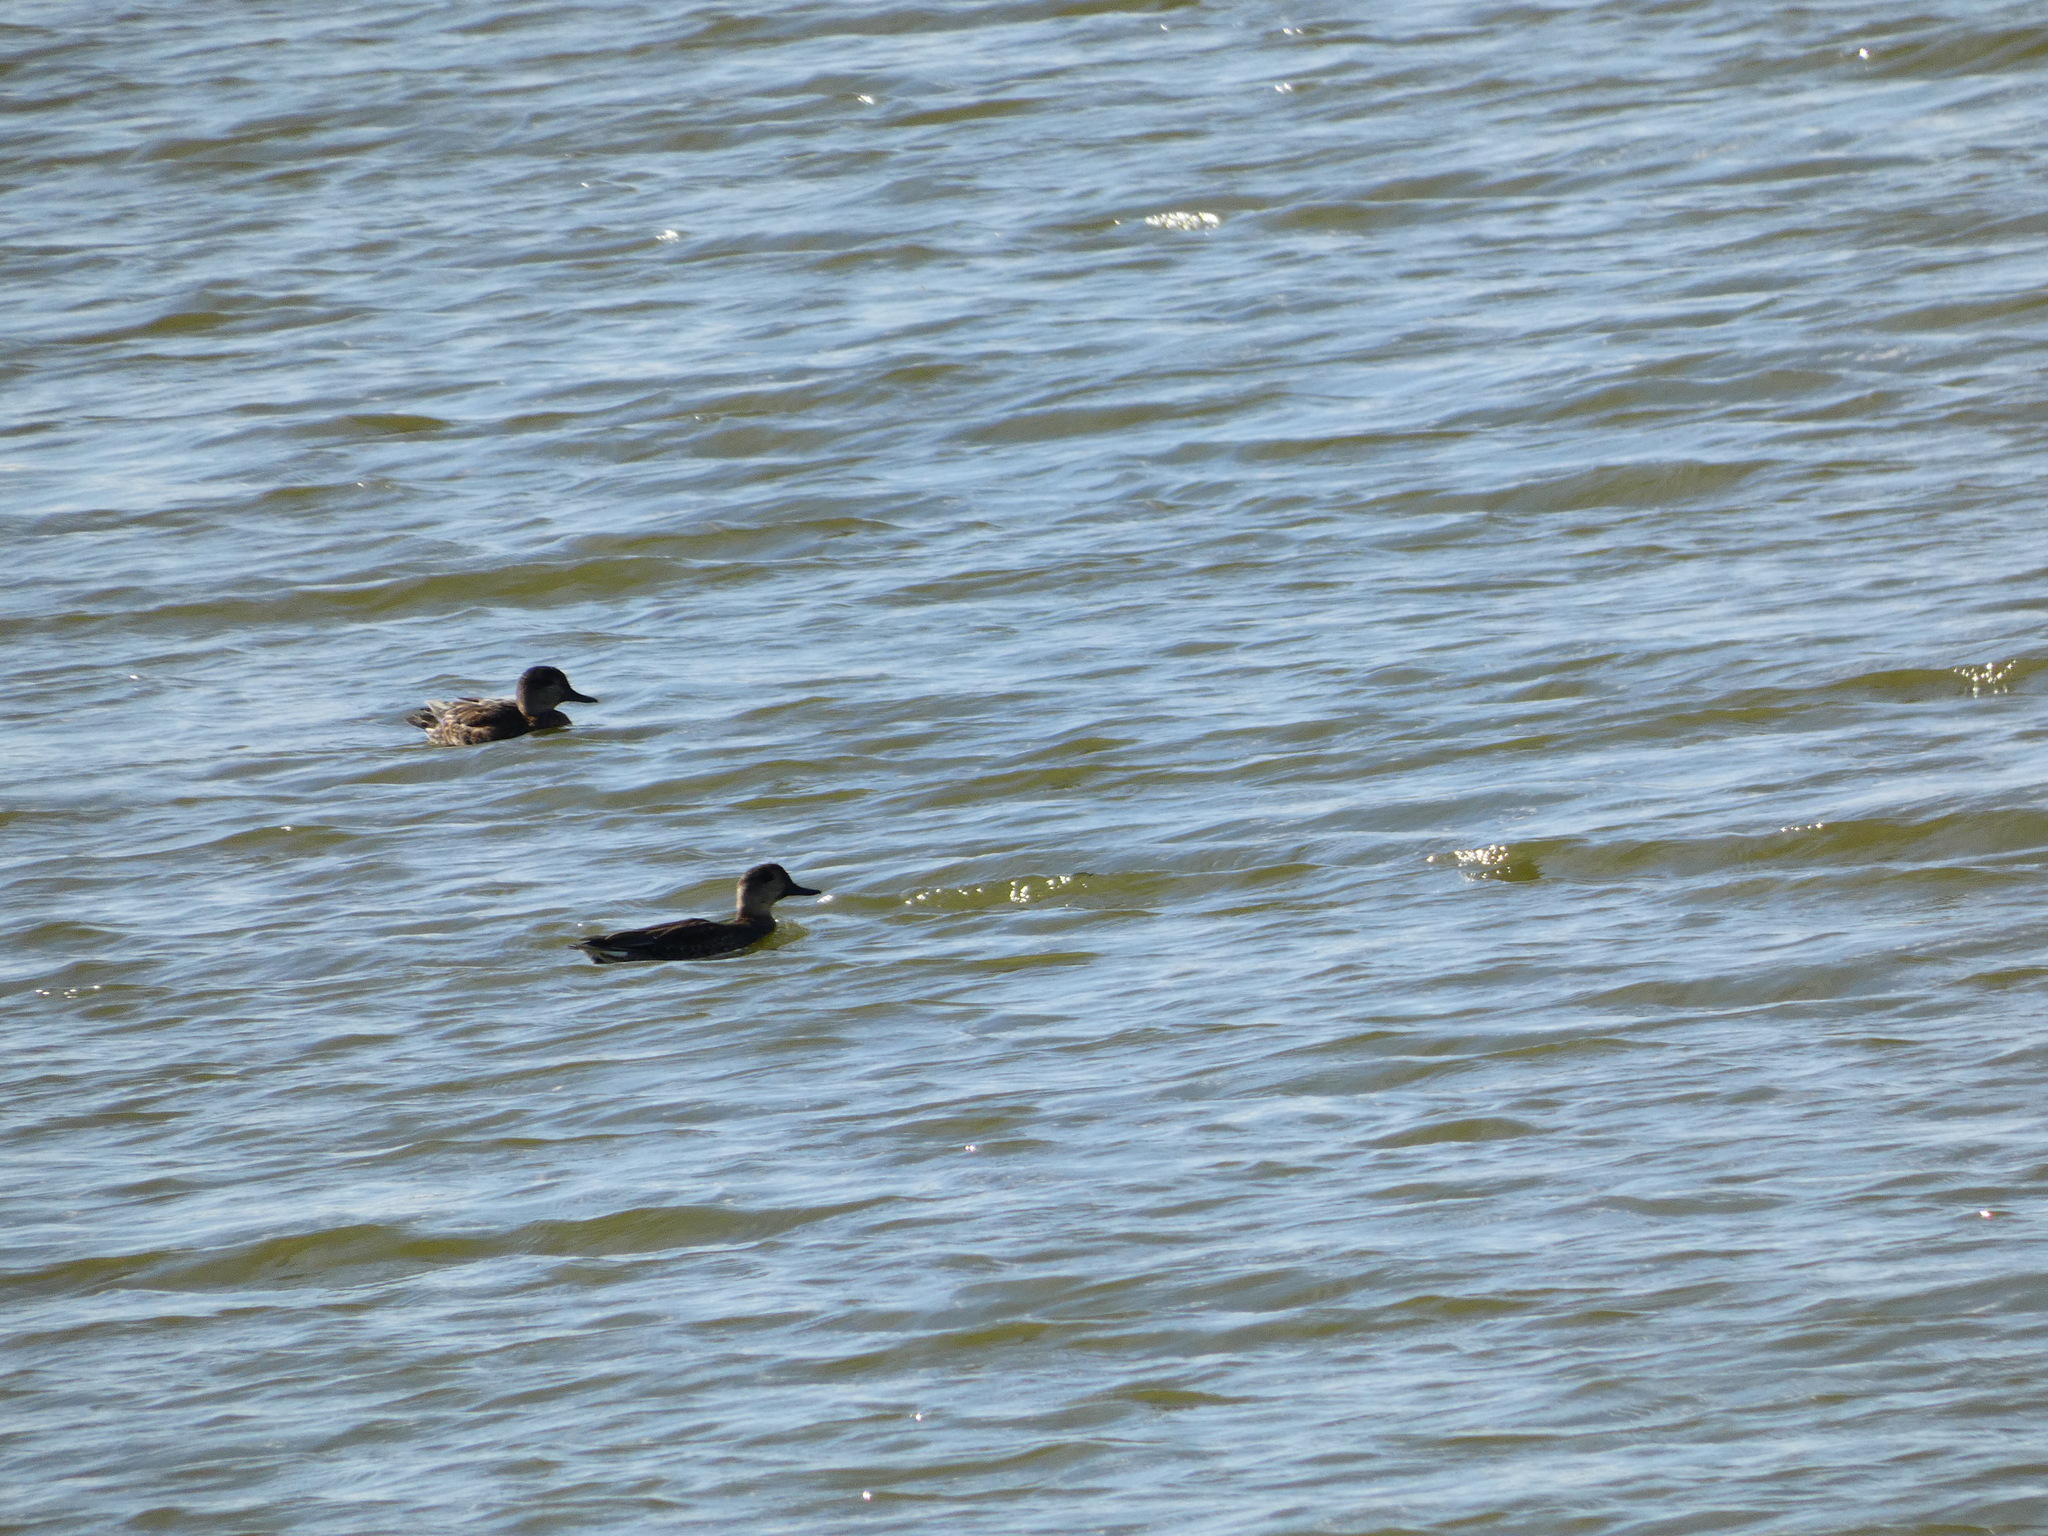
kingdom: Animalia
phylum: Chordata
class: Aves
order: Anseriformes
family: Anatidae
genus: Mareca
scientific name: Mareca strepera
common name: Gadwall
